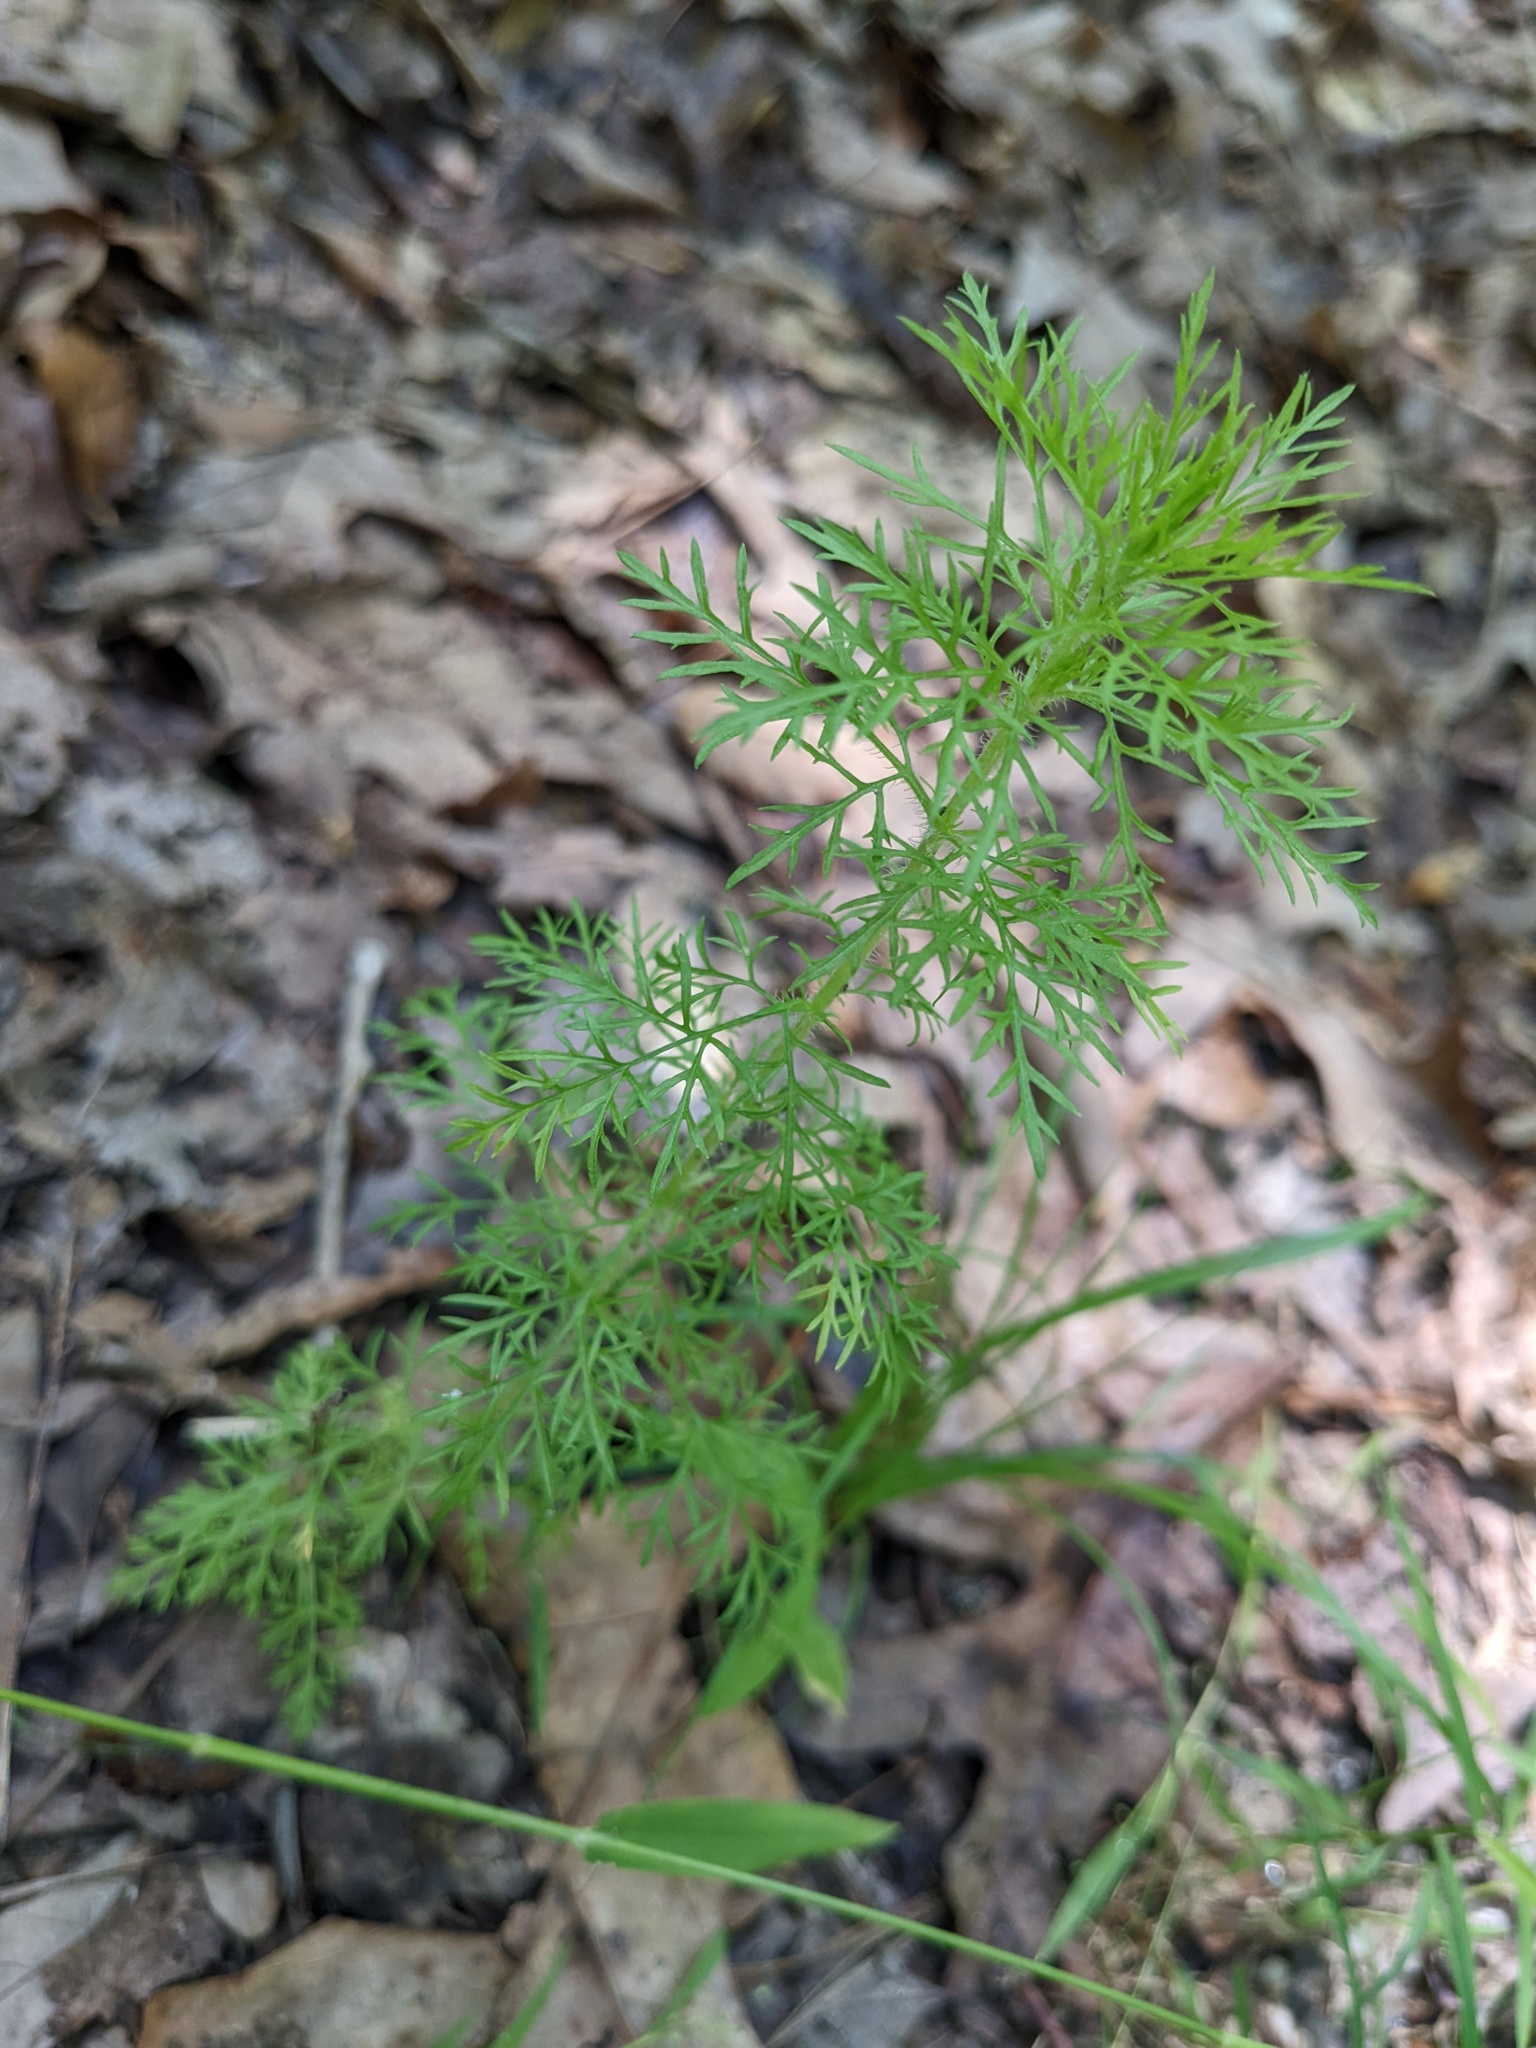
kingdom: Plantae
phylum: Tracheophyta
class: Magnoliopsida
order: Asterales
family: Asteraceae
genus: Eupatorium
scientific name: Eupatorium capillifolium
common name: Dog-fennel
